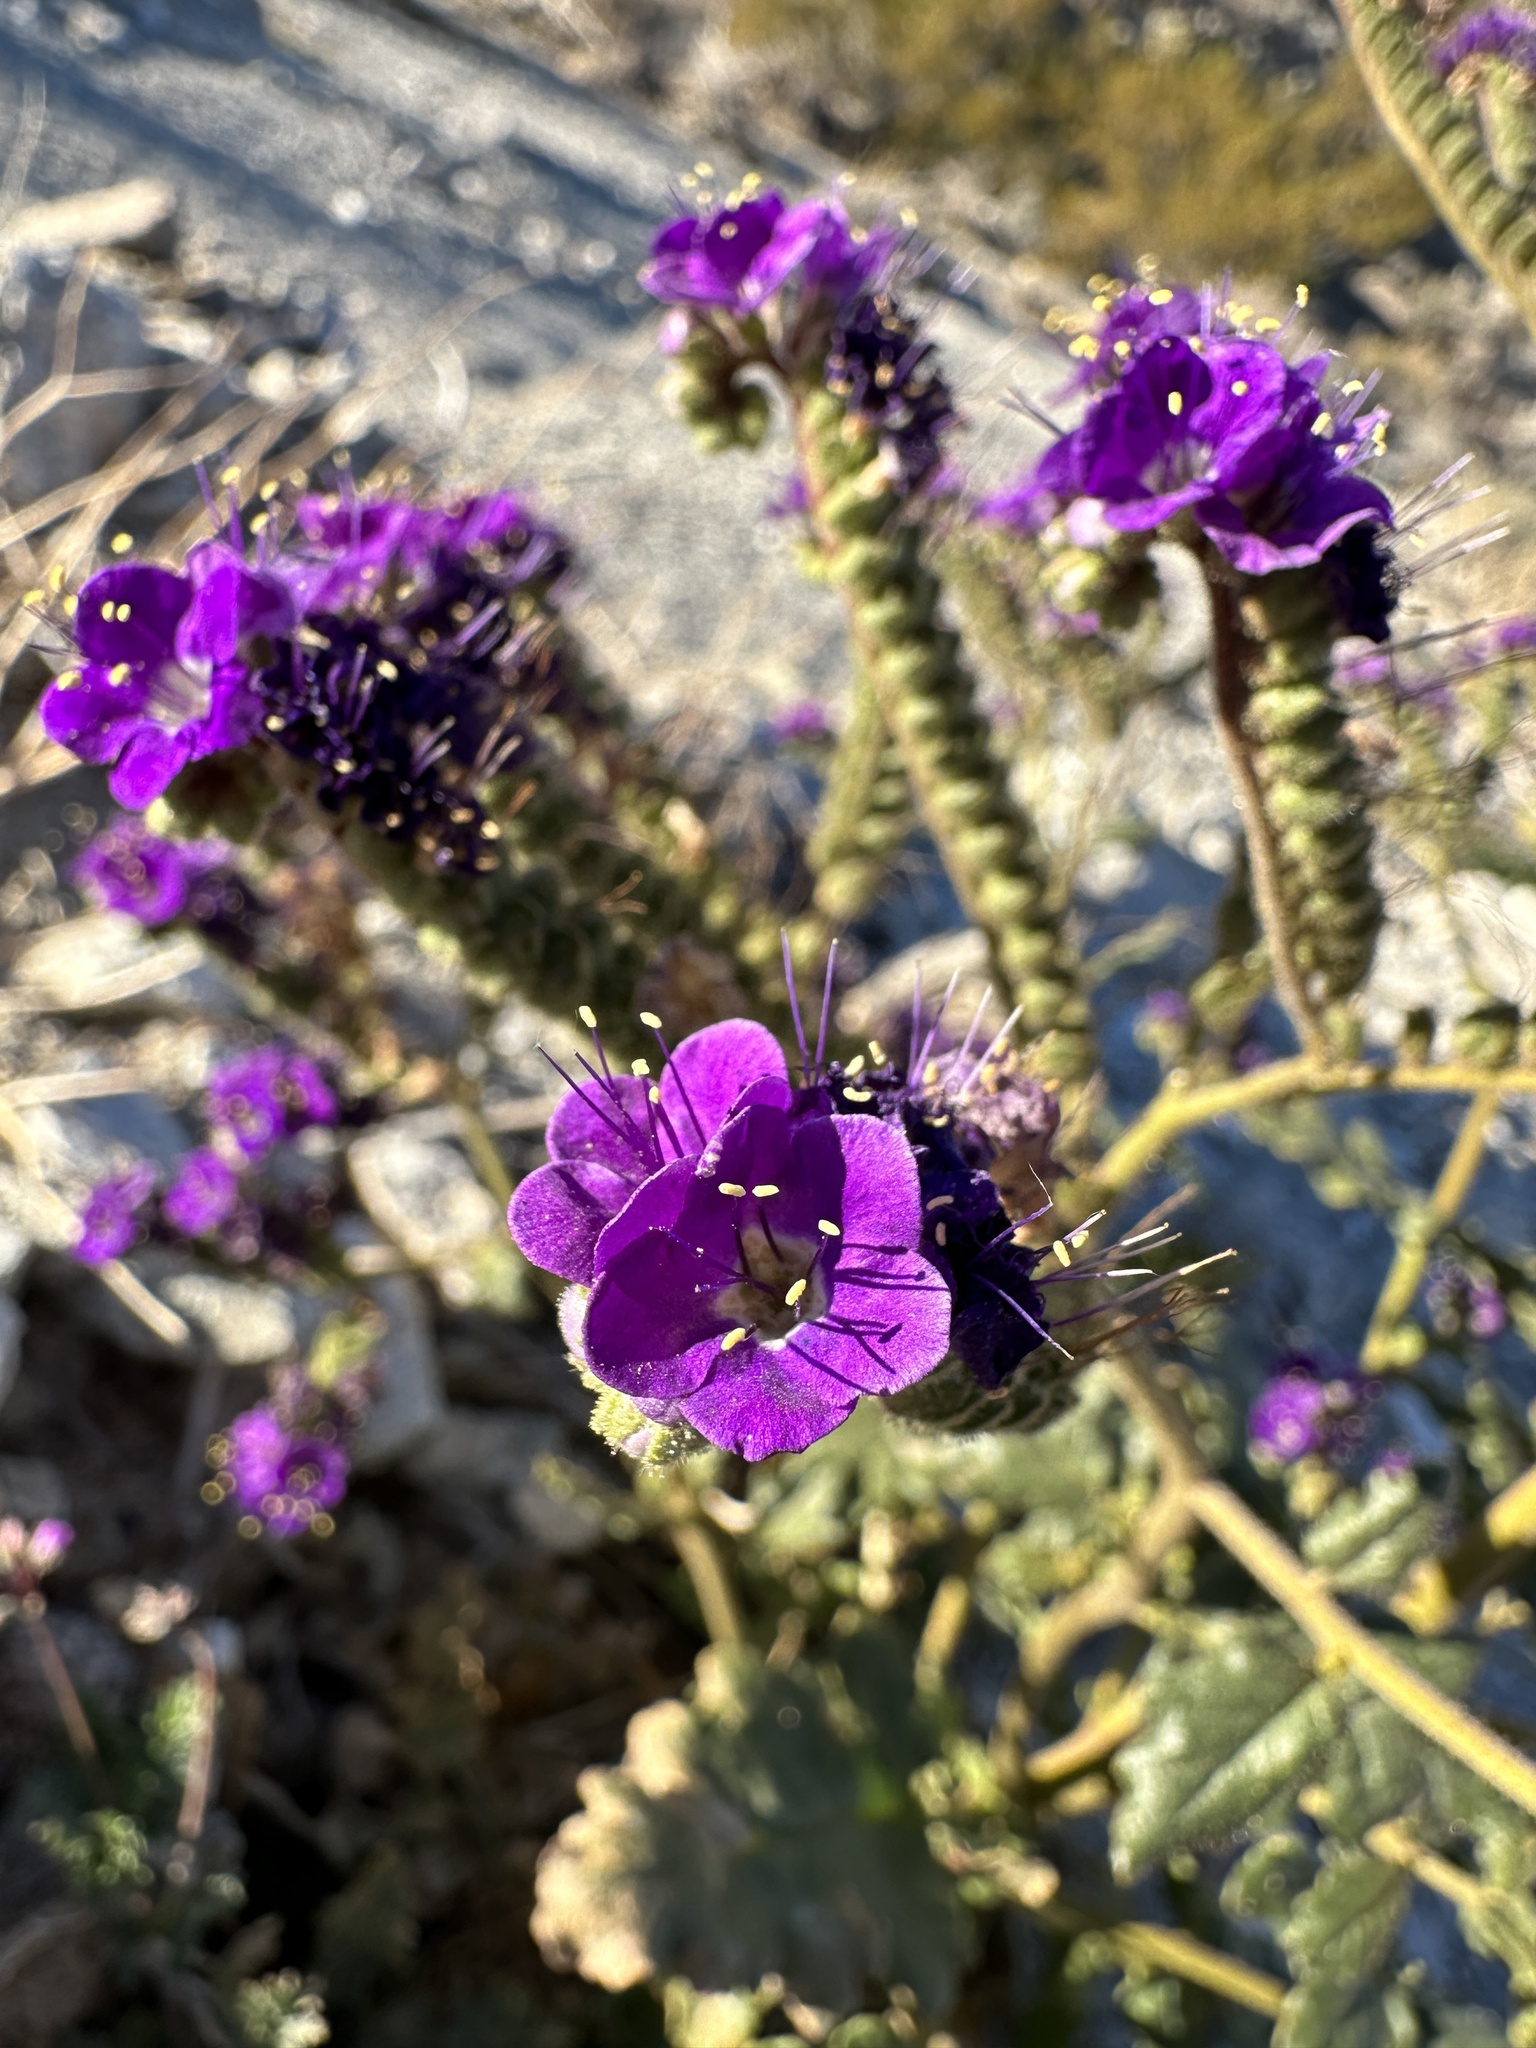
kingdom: Plantae
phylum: Tracheophyta
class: Magnoliopsida
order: Boraginales
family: Hydrophyllaceae
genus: Phacelia
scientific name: Phacelia crenulata
